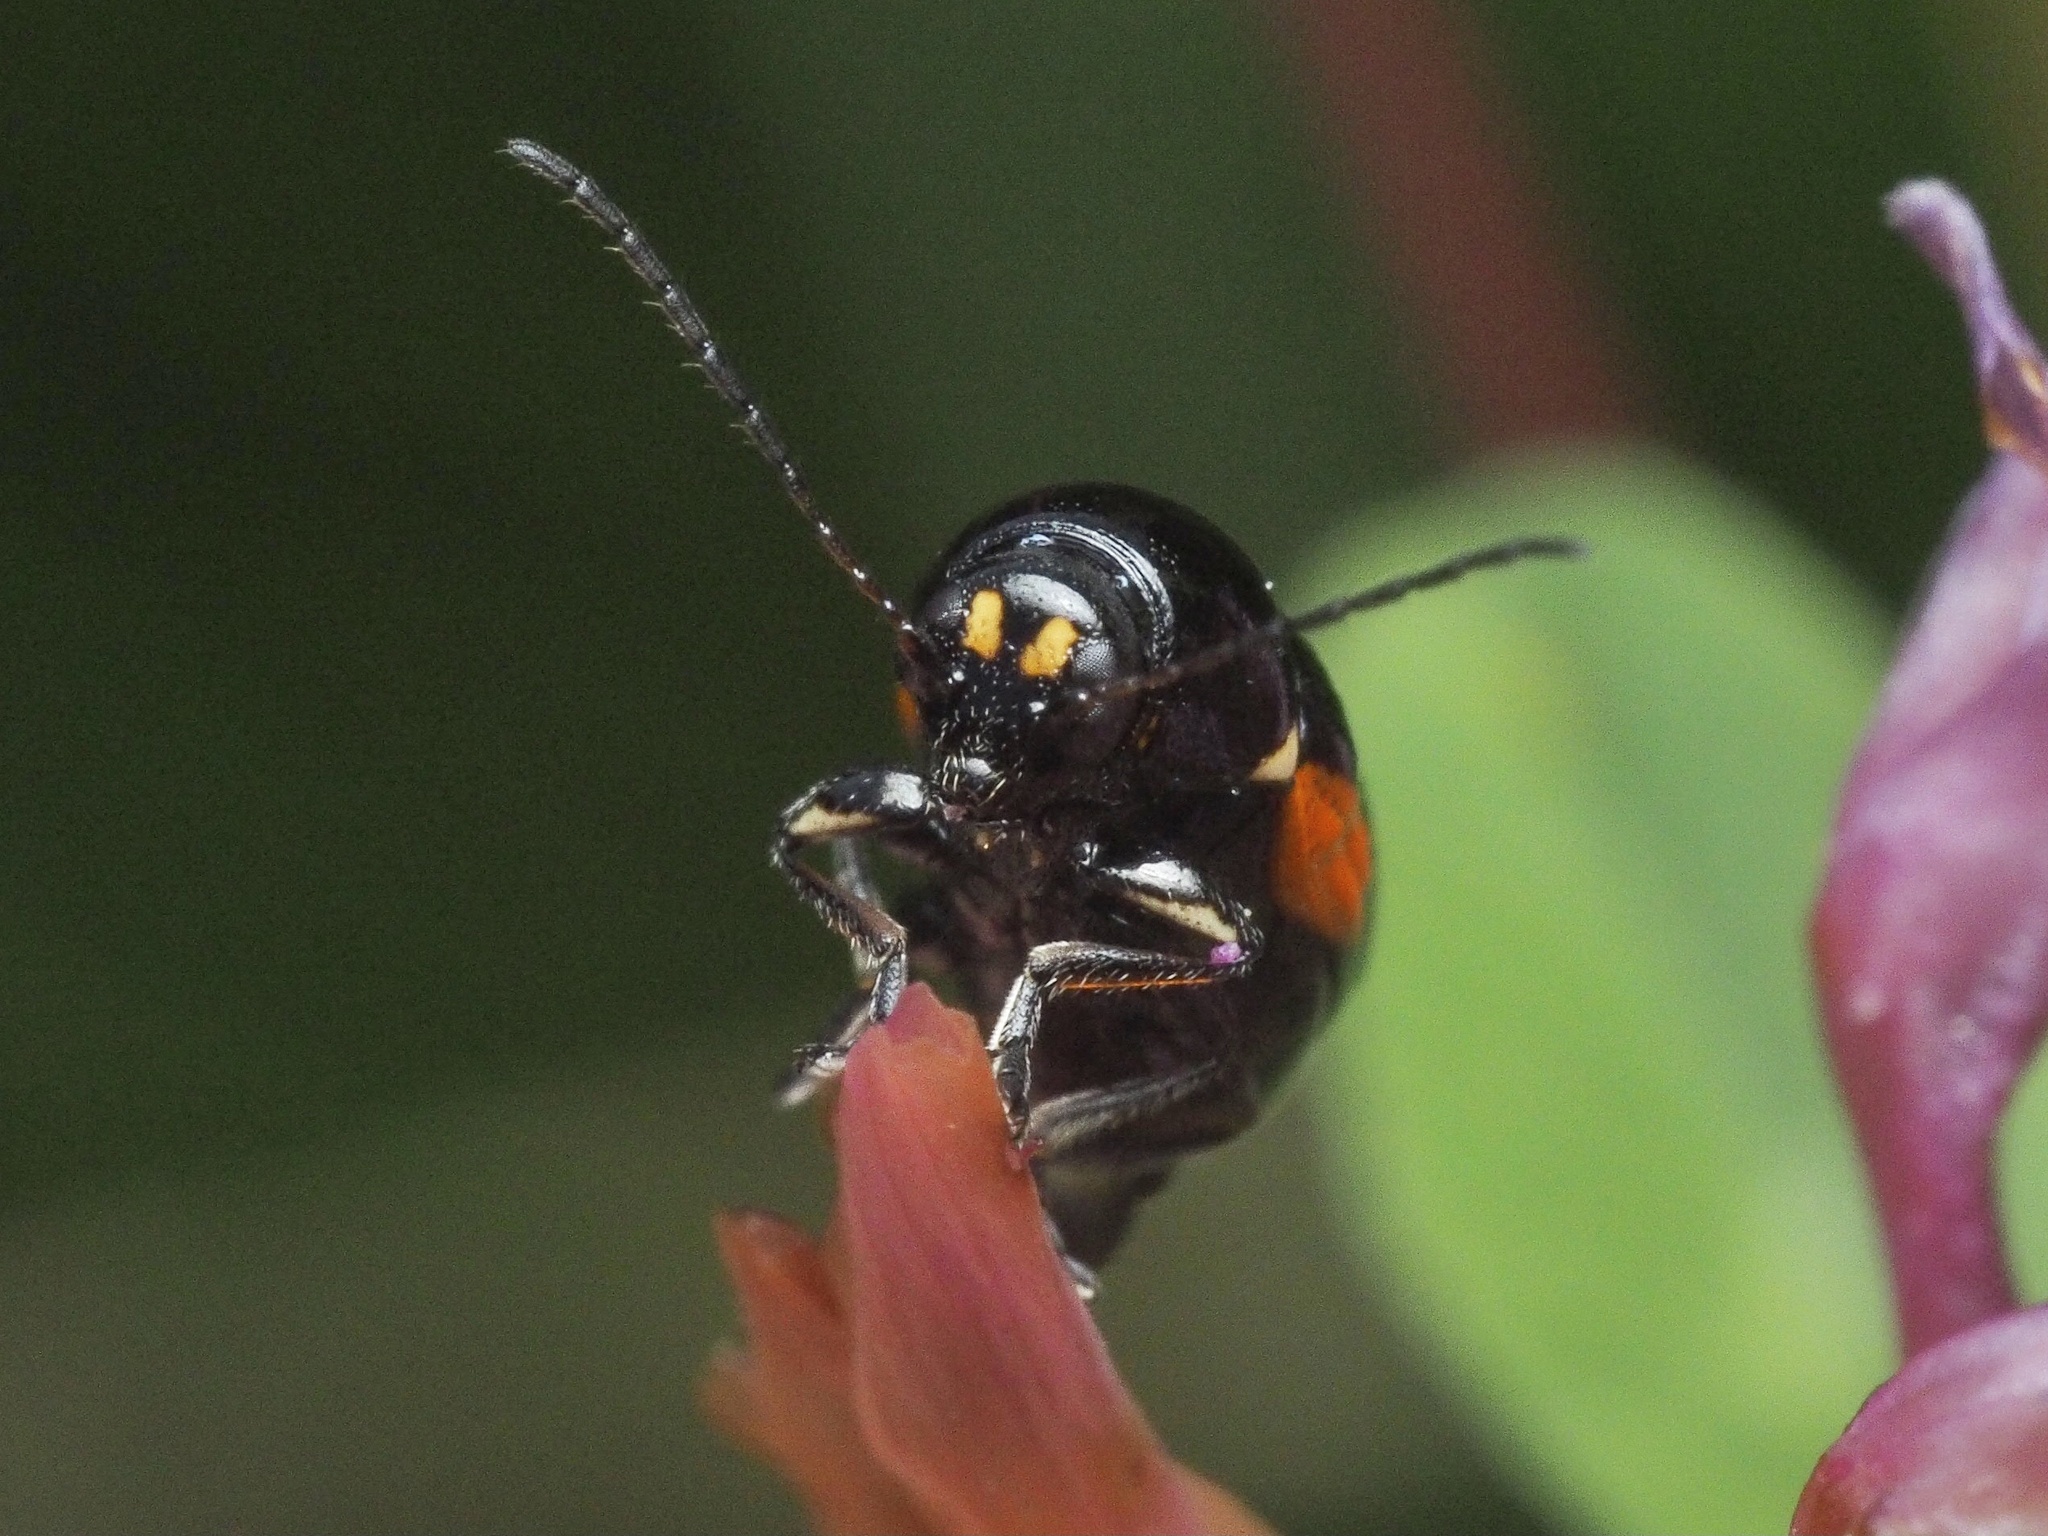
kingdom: Animalia
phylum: Arthropoda
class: Insecta
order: Coleoptera
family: Chrysomelidae
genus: Cryptocephalus
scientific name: Cryptocephalus moraei
